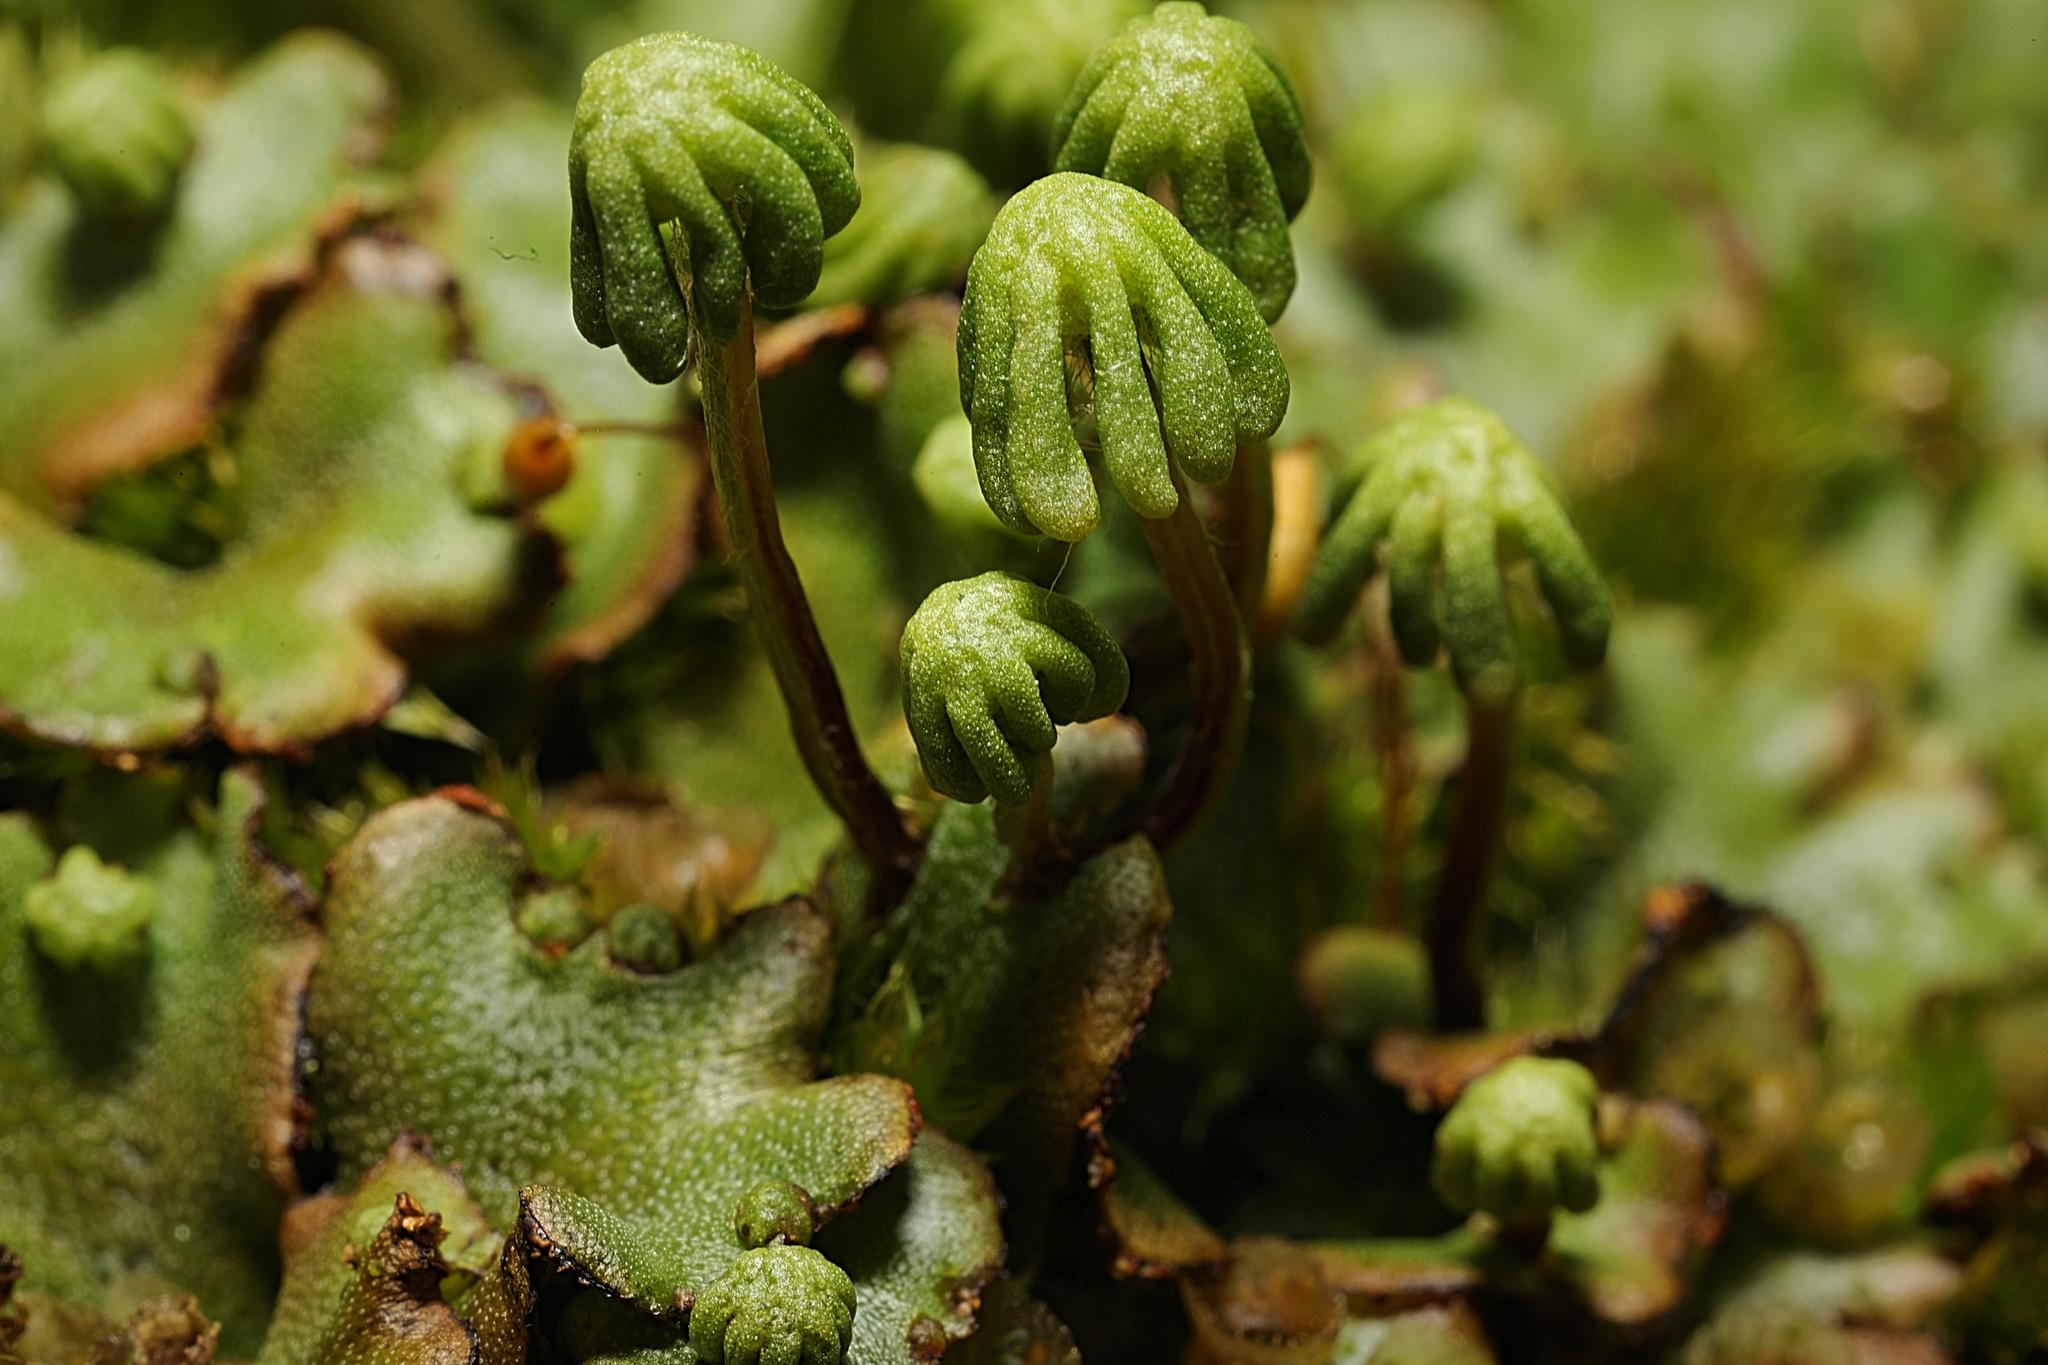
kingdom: Plantae
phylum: Marchantiophyta
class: Marchantiopsida
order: Marchantiales
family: Marchantiaceae
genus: Marchantia
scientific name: Marchantia polymorpha
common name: Common liverwort
